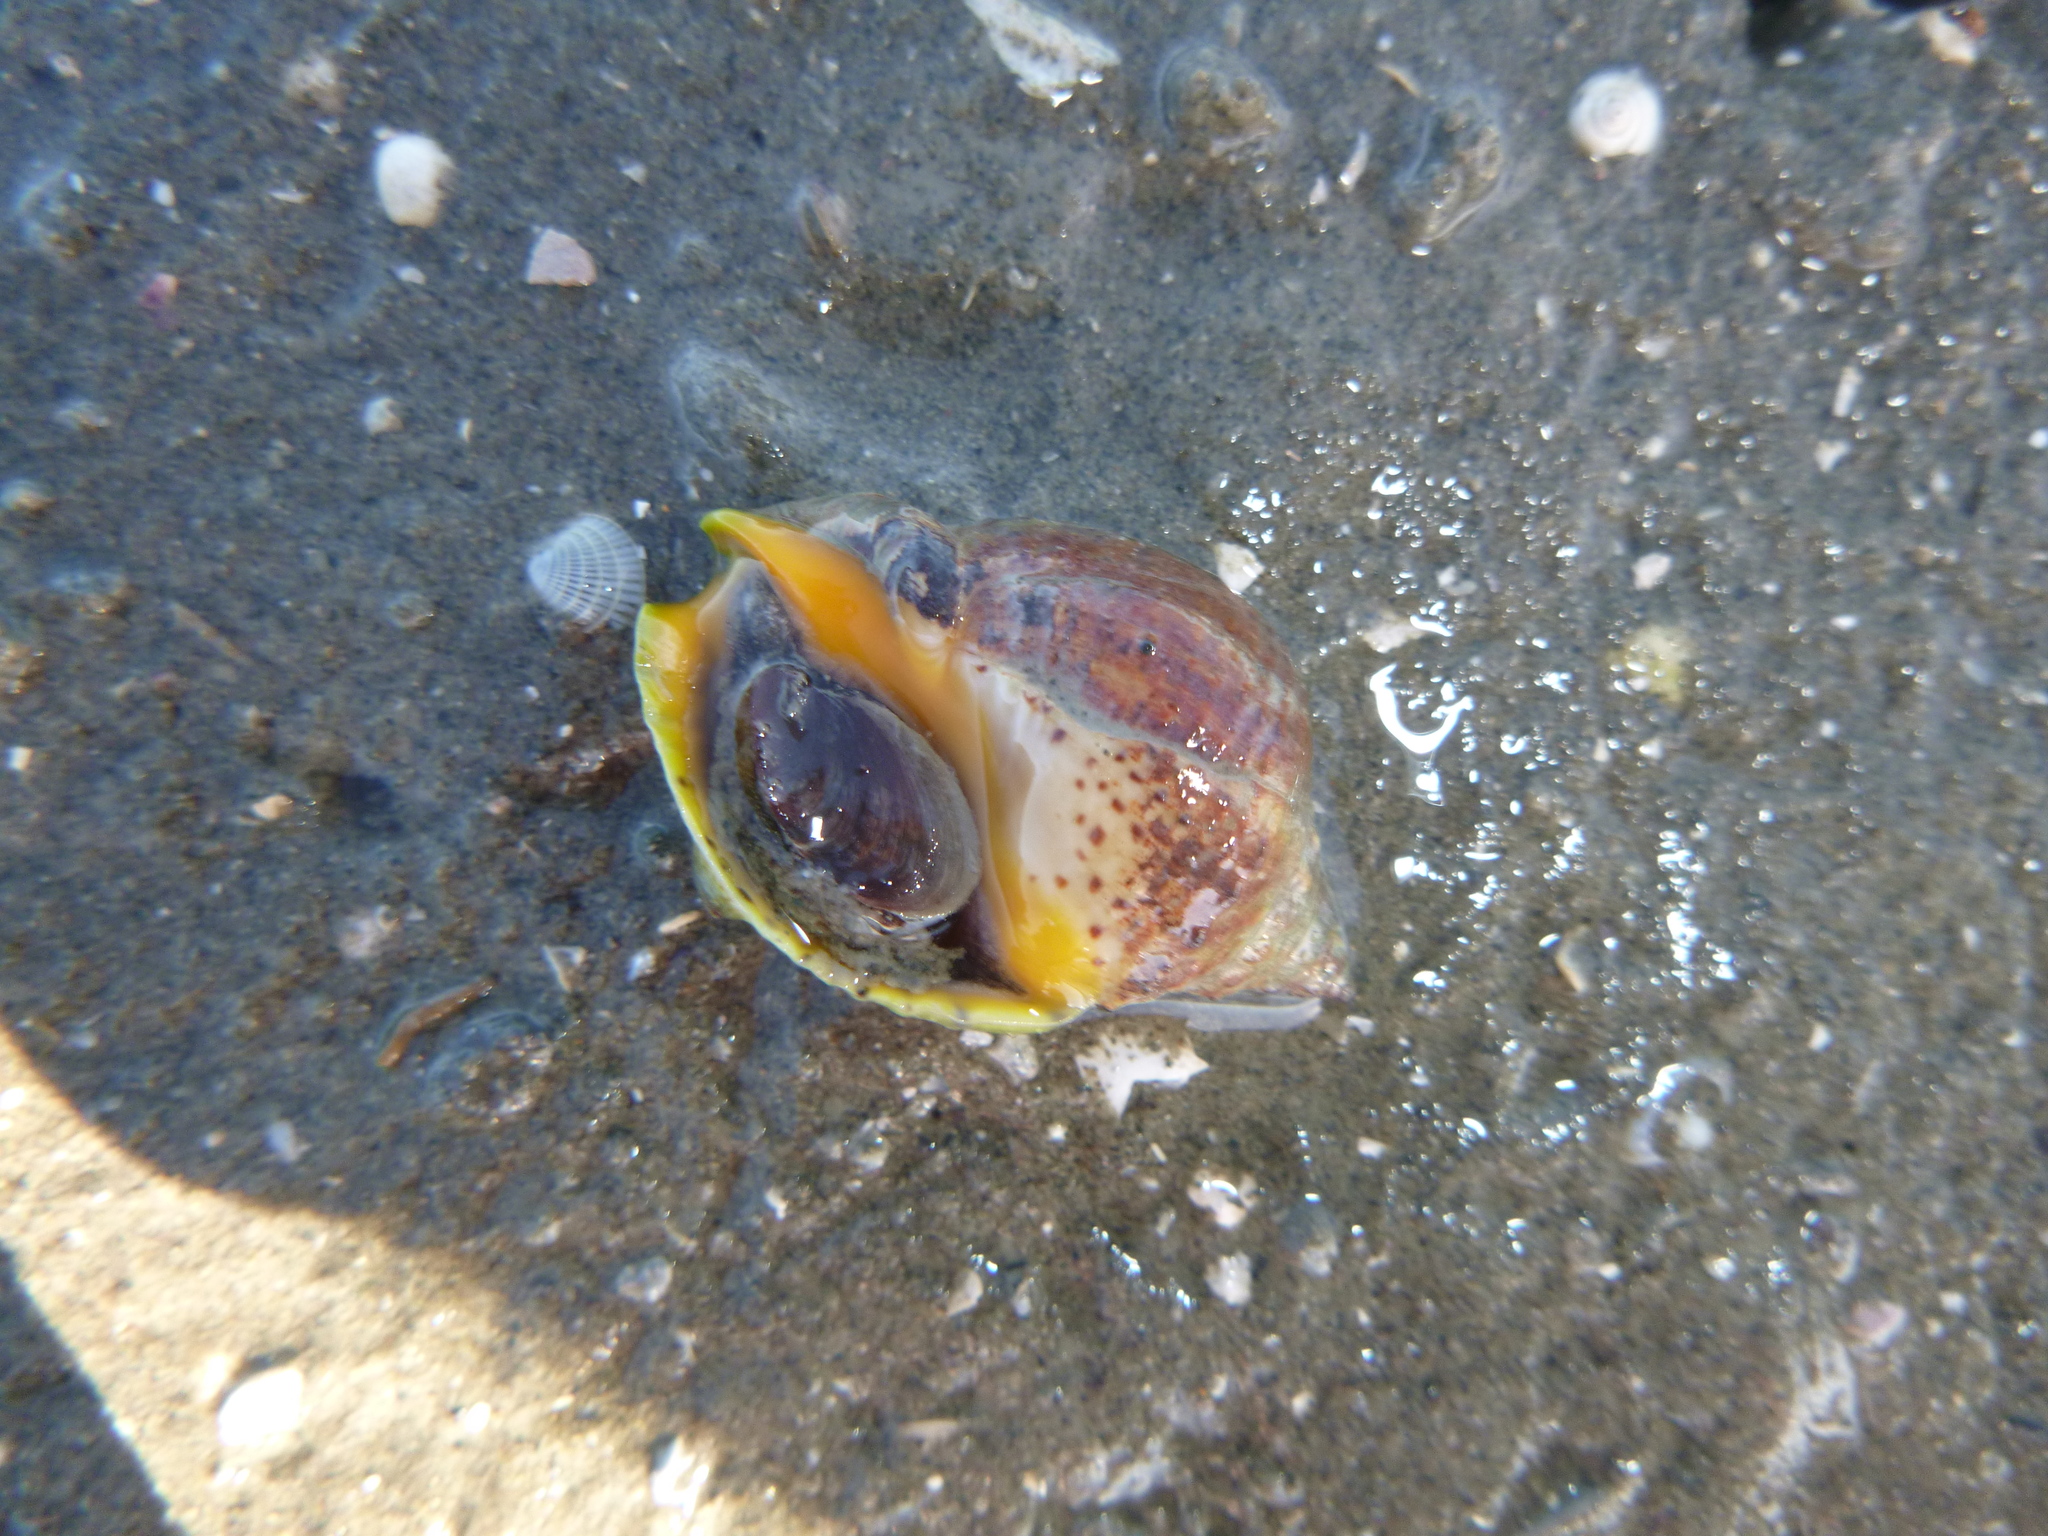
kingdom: Animalia
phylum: Mollusca
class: Gastropoda
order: Neogastropoda
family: Cominellidae
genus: Cominella
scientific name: Cominella adspersa
